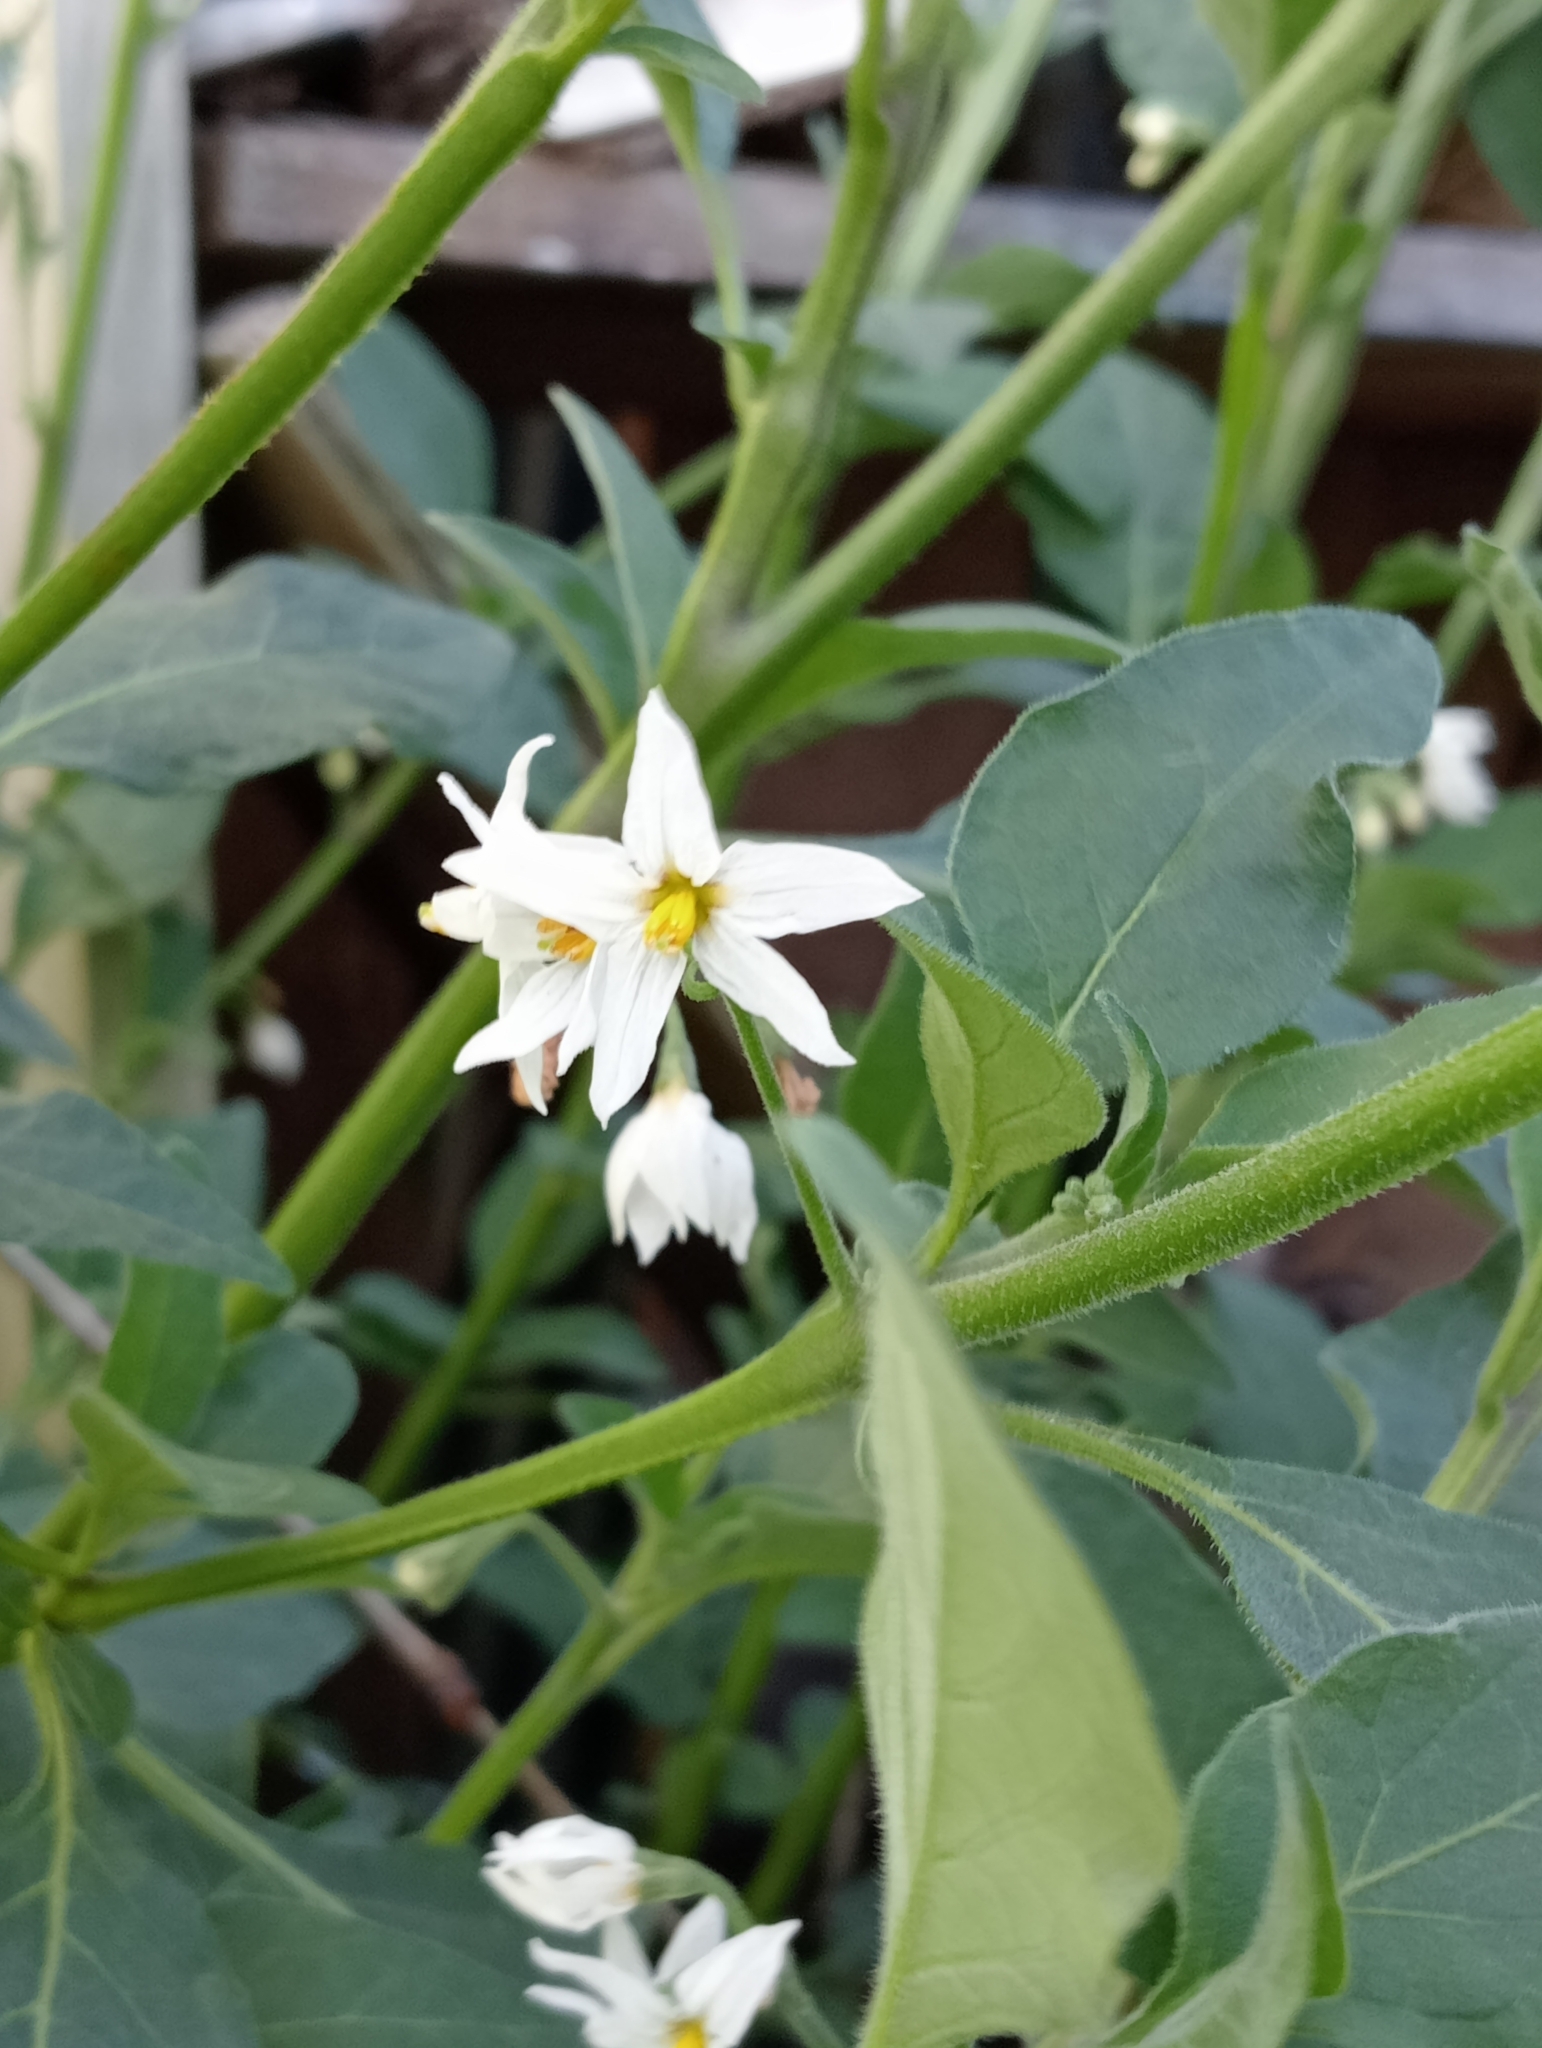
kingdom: Plantae
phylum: Tracheophyta
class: Magnoliopsida
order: Solanales
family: Solanaceae
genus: Solanum
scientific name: Solanum chenopodioides
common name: Tall nightshade
